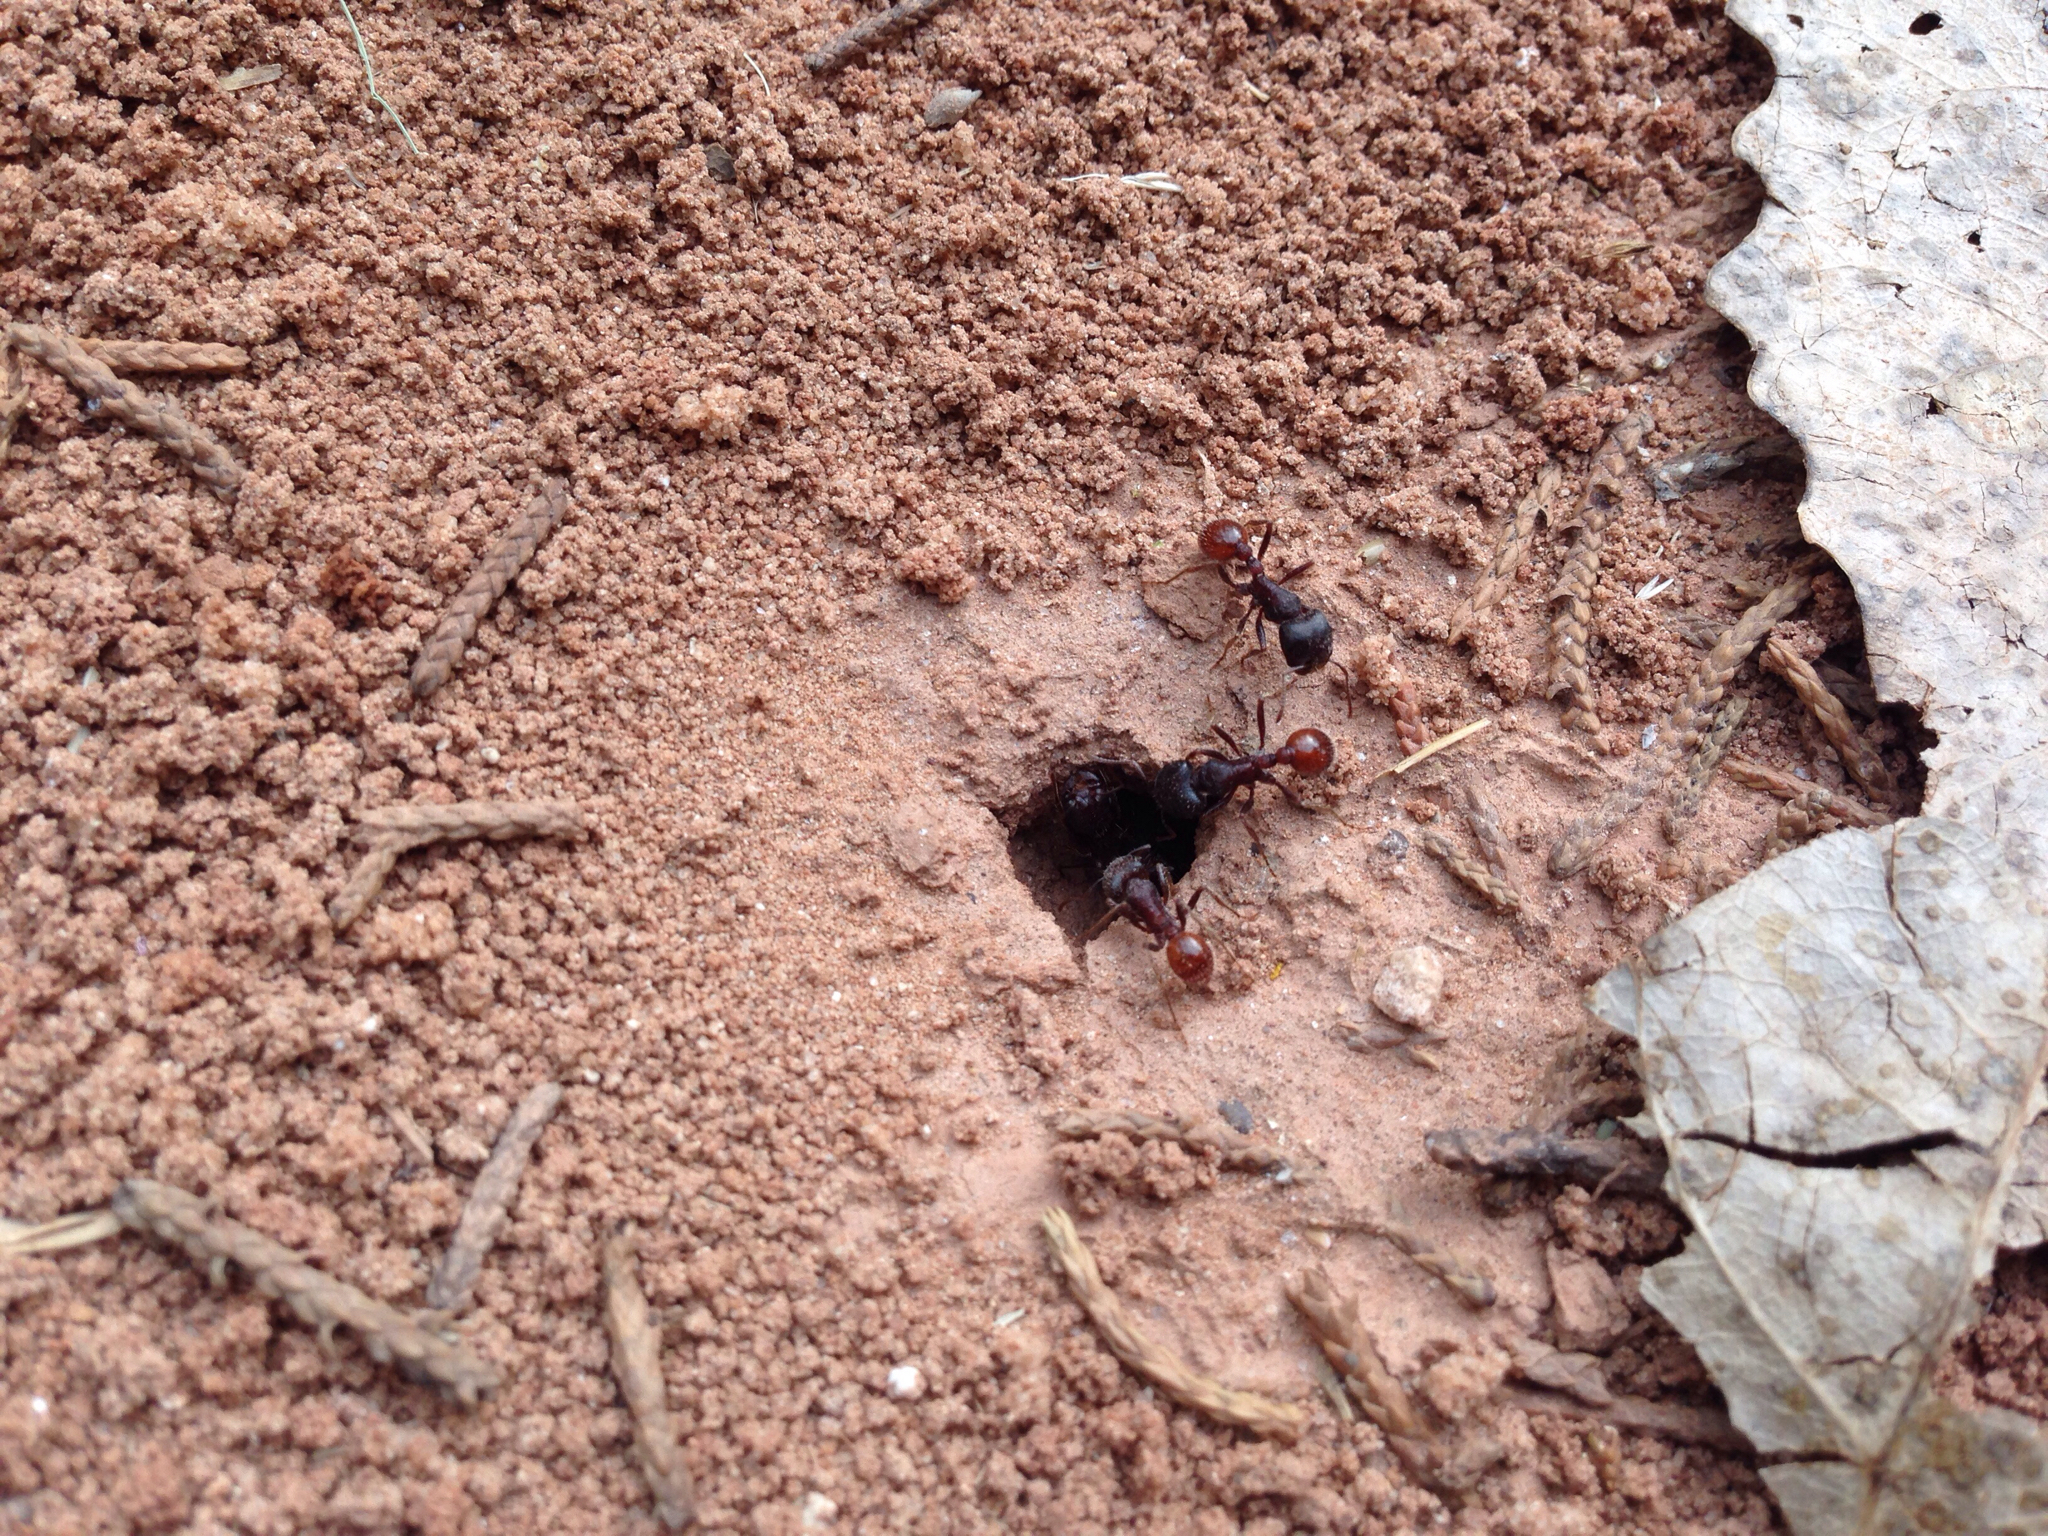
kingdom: Animalia
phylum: Arthropoda
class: Insecta
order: Hymenoptera
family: Formicidae
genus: Pogonomyrmex
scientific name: Pogonomyrmex rugosus
